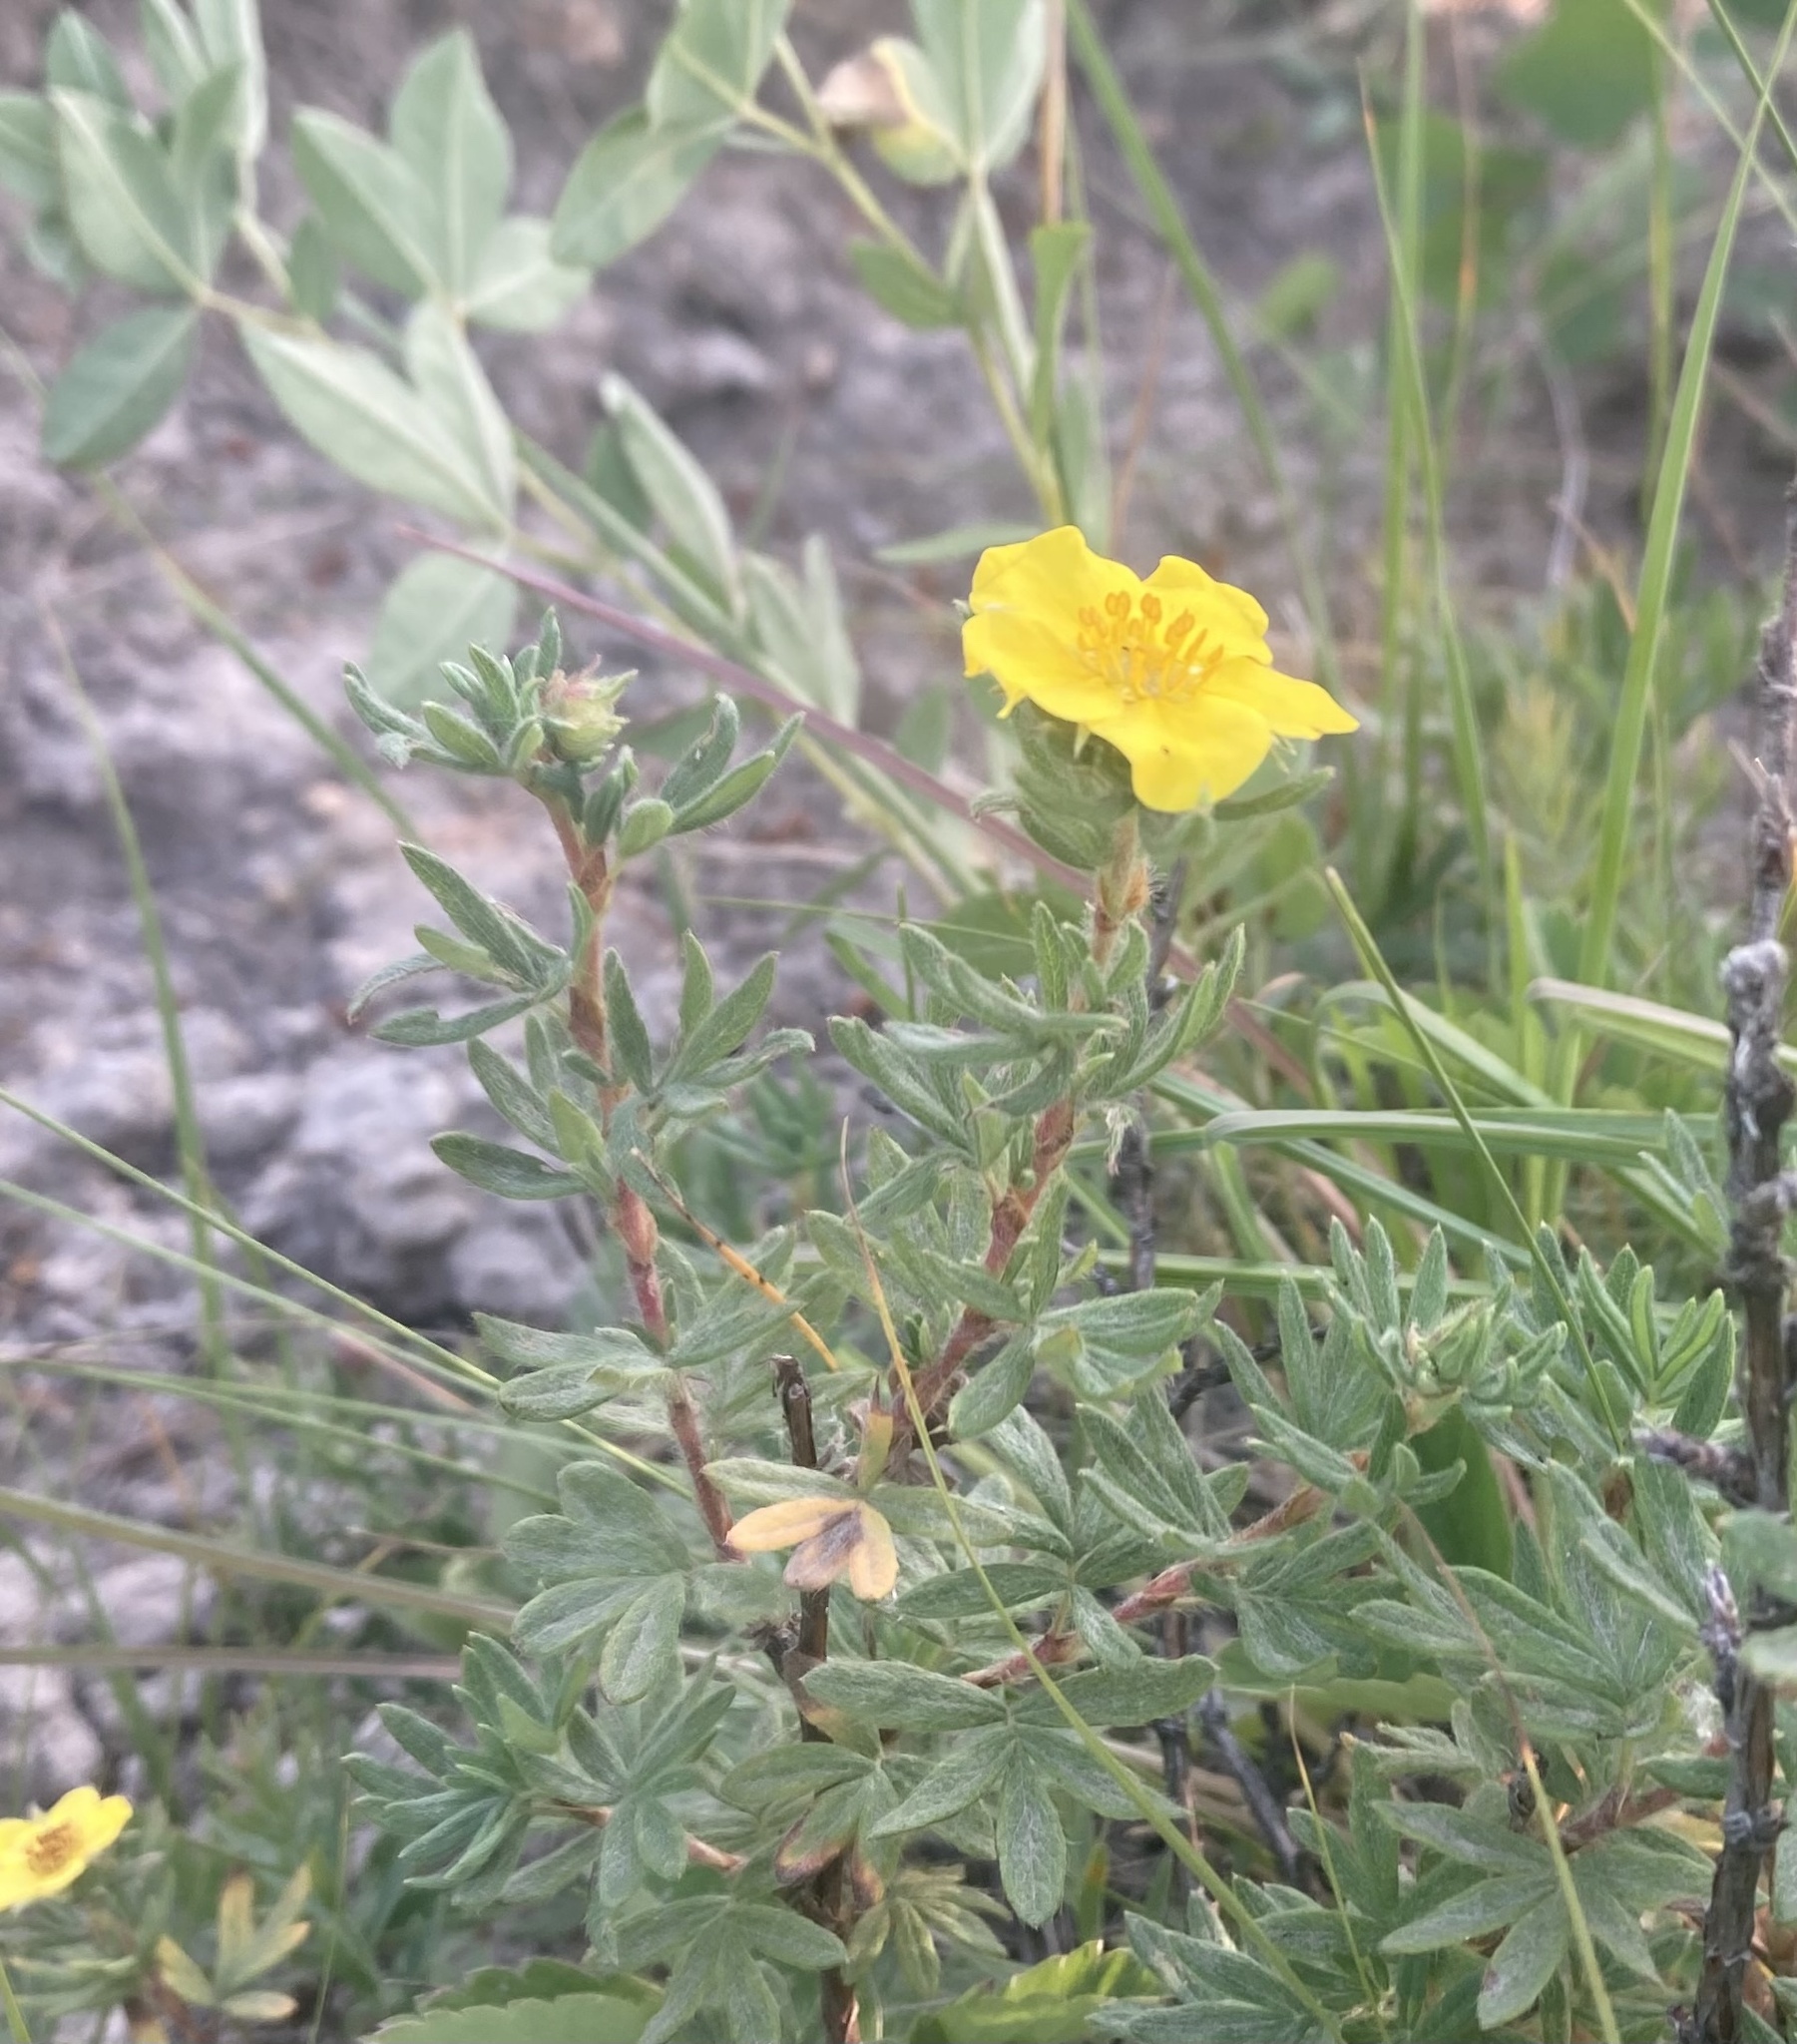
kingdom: Plantae
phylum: Tracheophyta
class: Magnoliopsida
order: Rosales
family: Rosaceae
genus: Dasiphora
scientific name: Dasiphora fruticosa
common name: Shrubby cinquefoil
